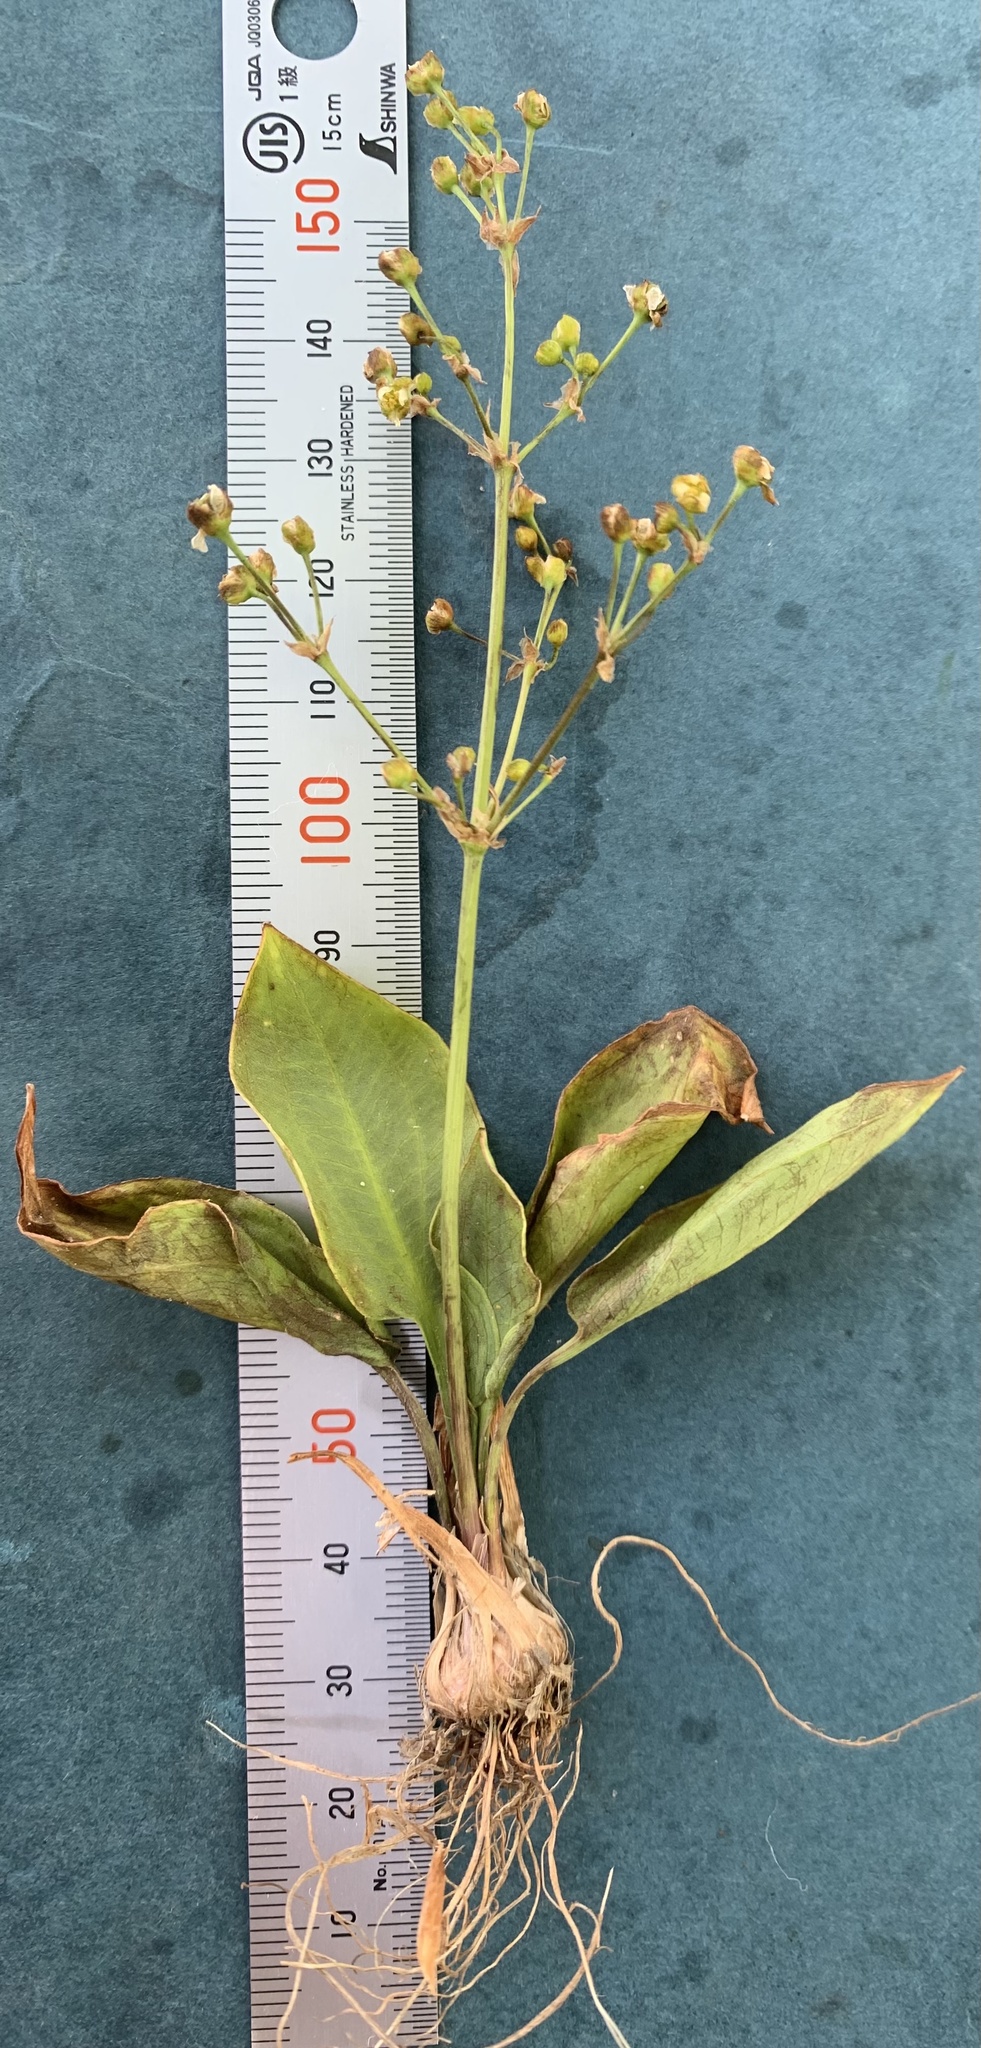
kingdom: Plantae
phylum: Tracheophyta
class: Liliopsida
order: Alismatales
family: Alismataceae
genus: Alisma
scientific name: Alisma triviale
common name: Northern water-plantain
